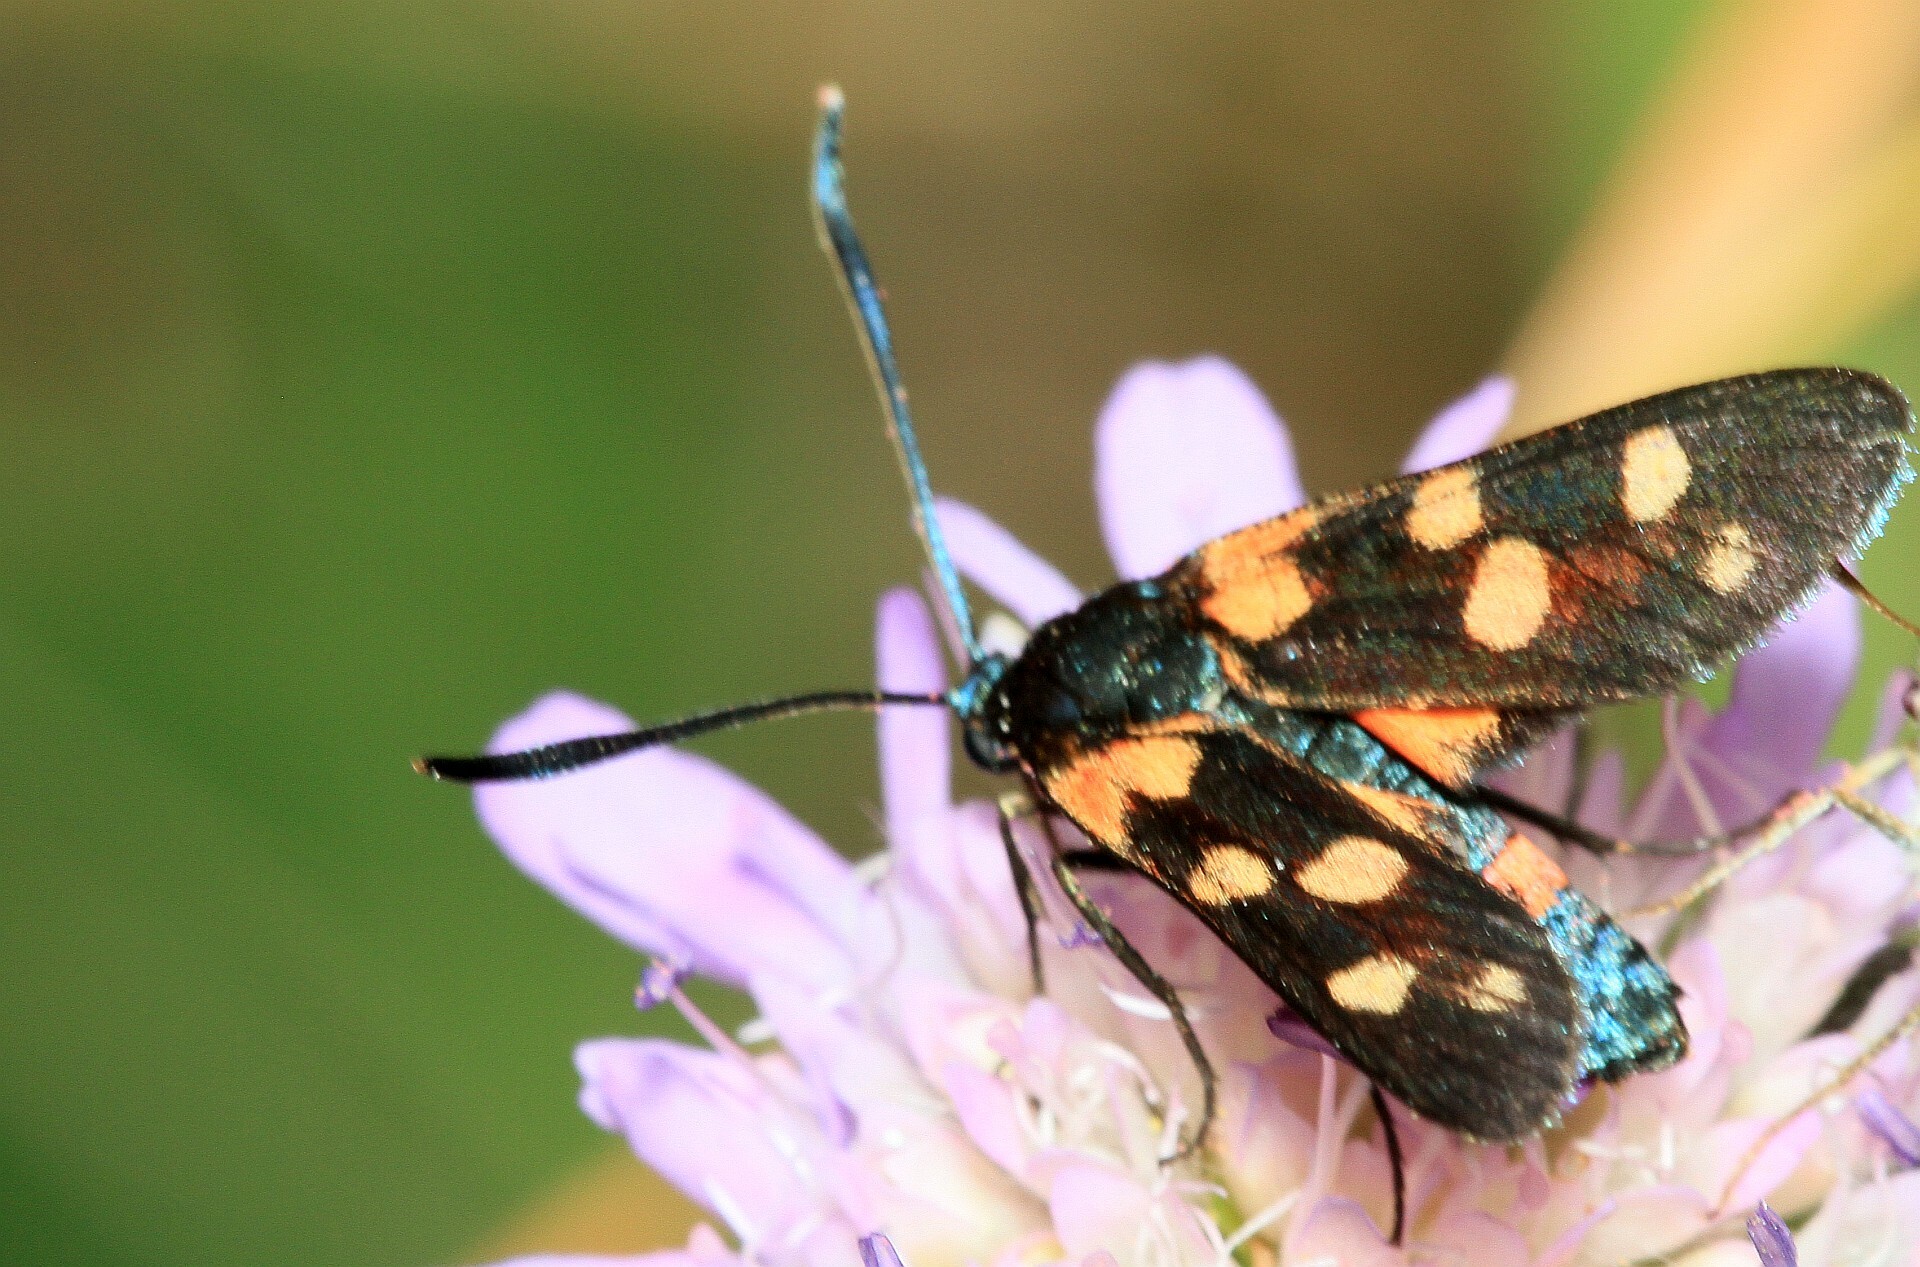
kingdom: Animalia
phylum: Arthropoda
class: Insecta
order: Lepidoptera
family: Zygaenidae
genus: Zygaena
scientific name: Zygaena ephialtes
